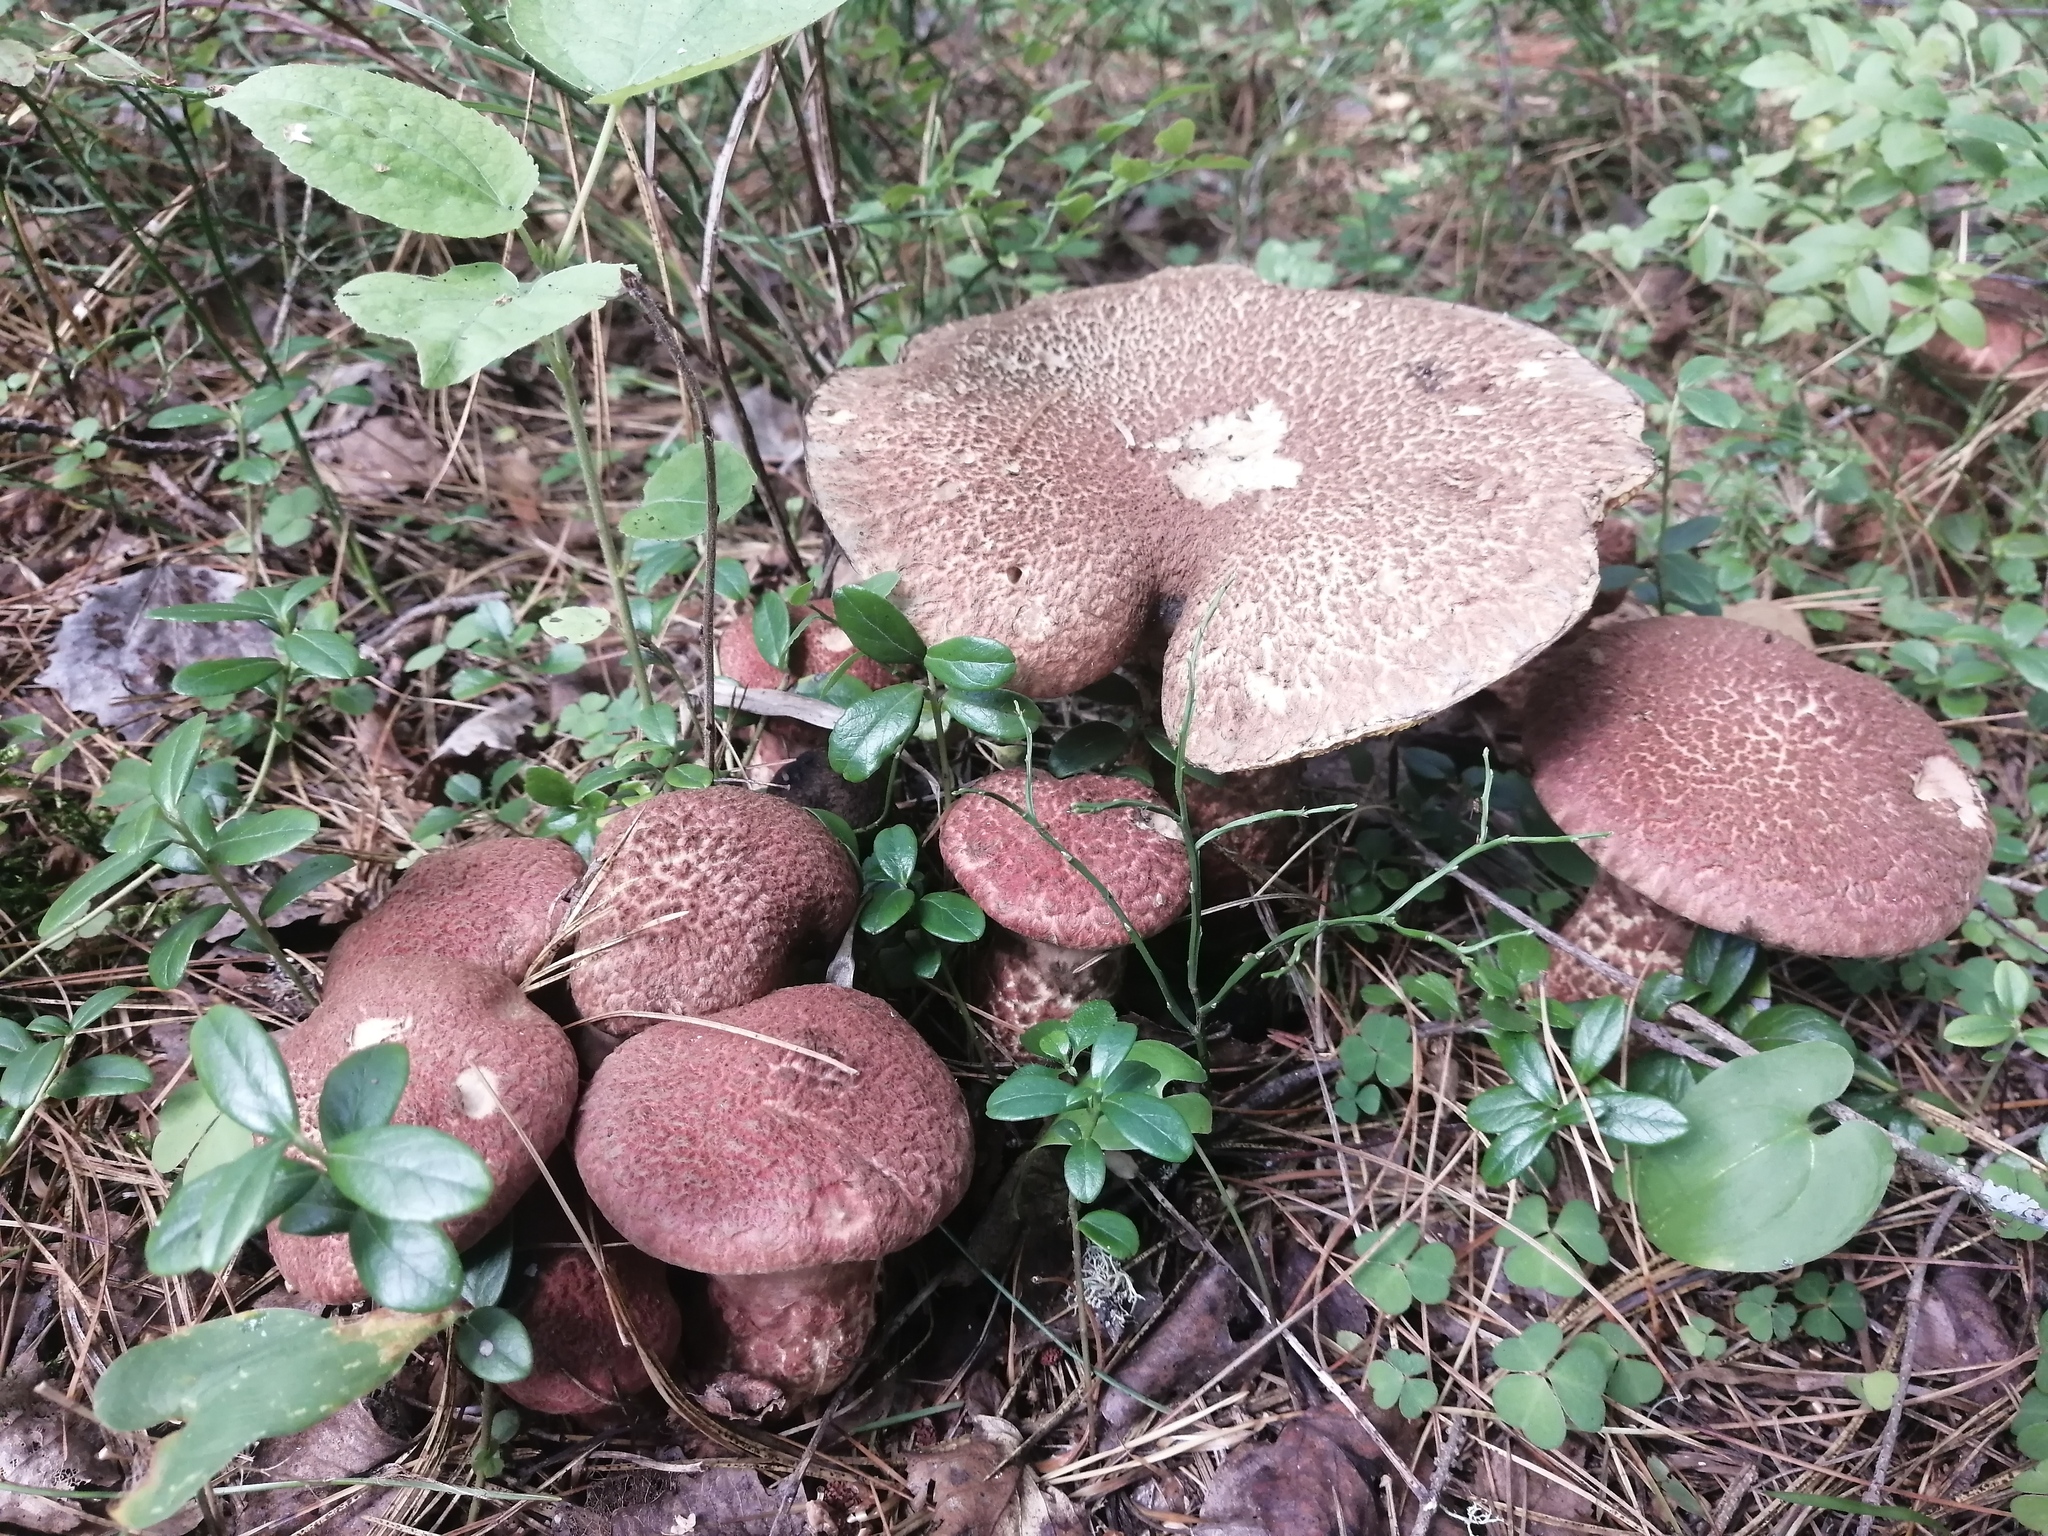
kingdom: Fungi
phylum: Basidiomycota
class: Agaricomycetes
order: Boletales
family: Suillaceae
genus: Suillus
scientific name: Suillus spraguei
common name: Painted suillus
